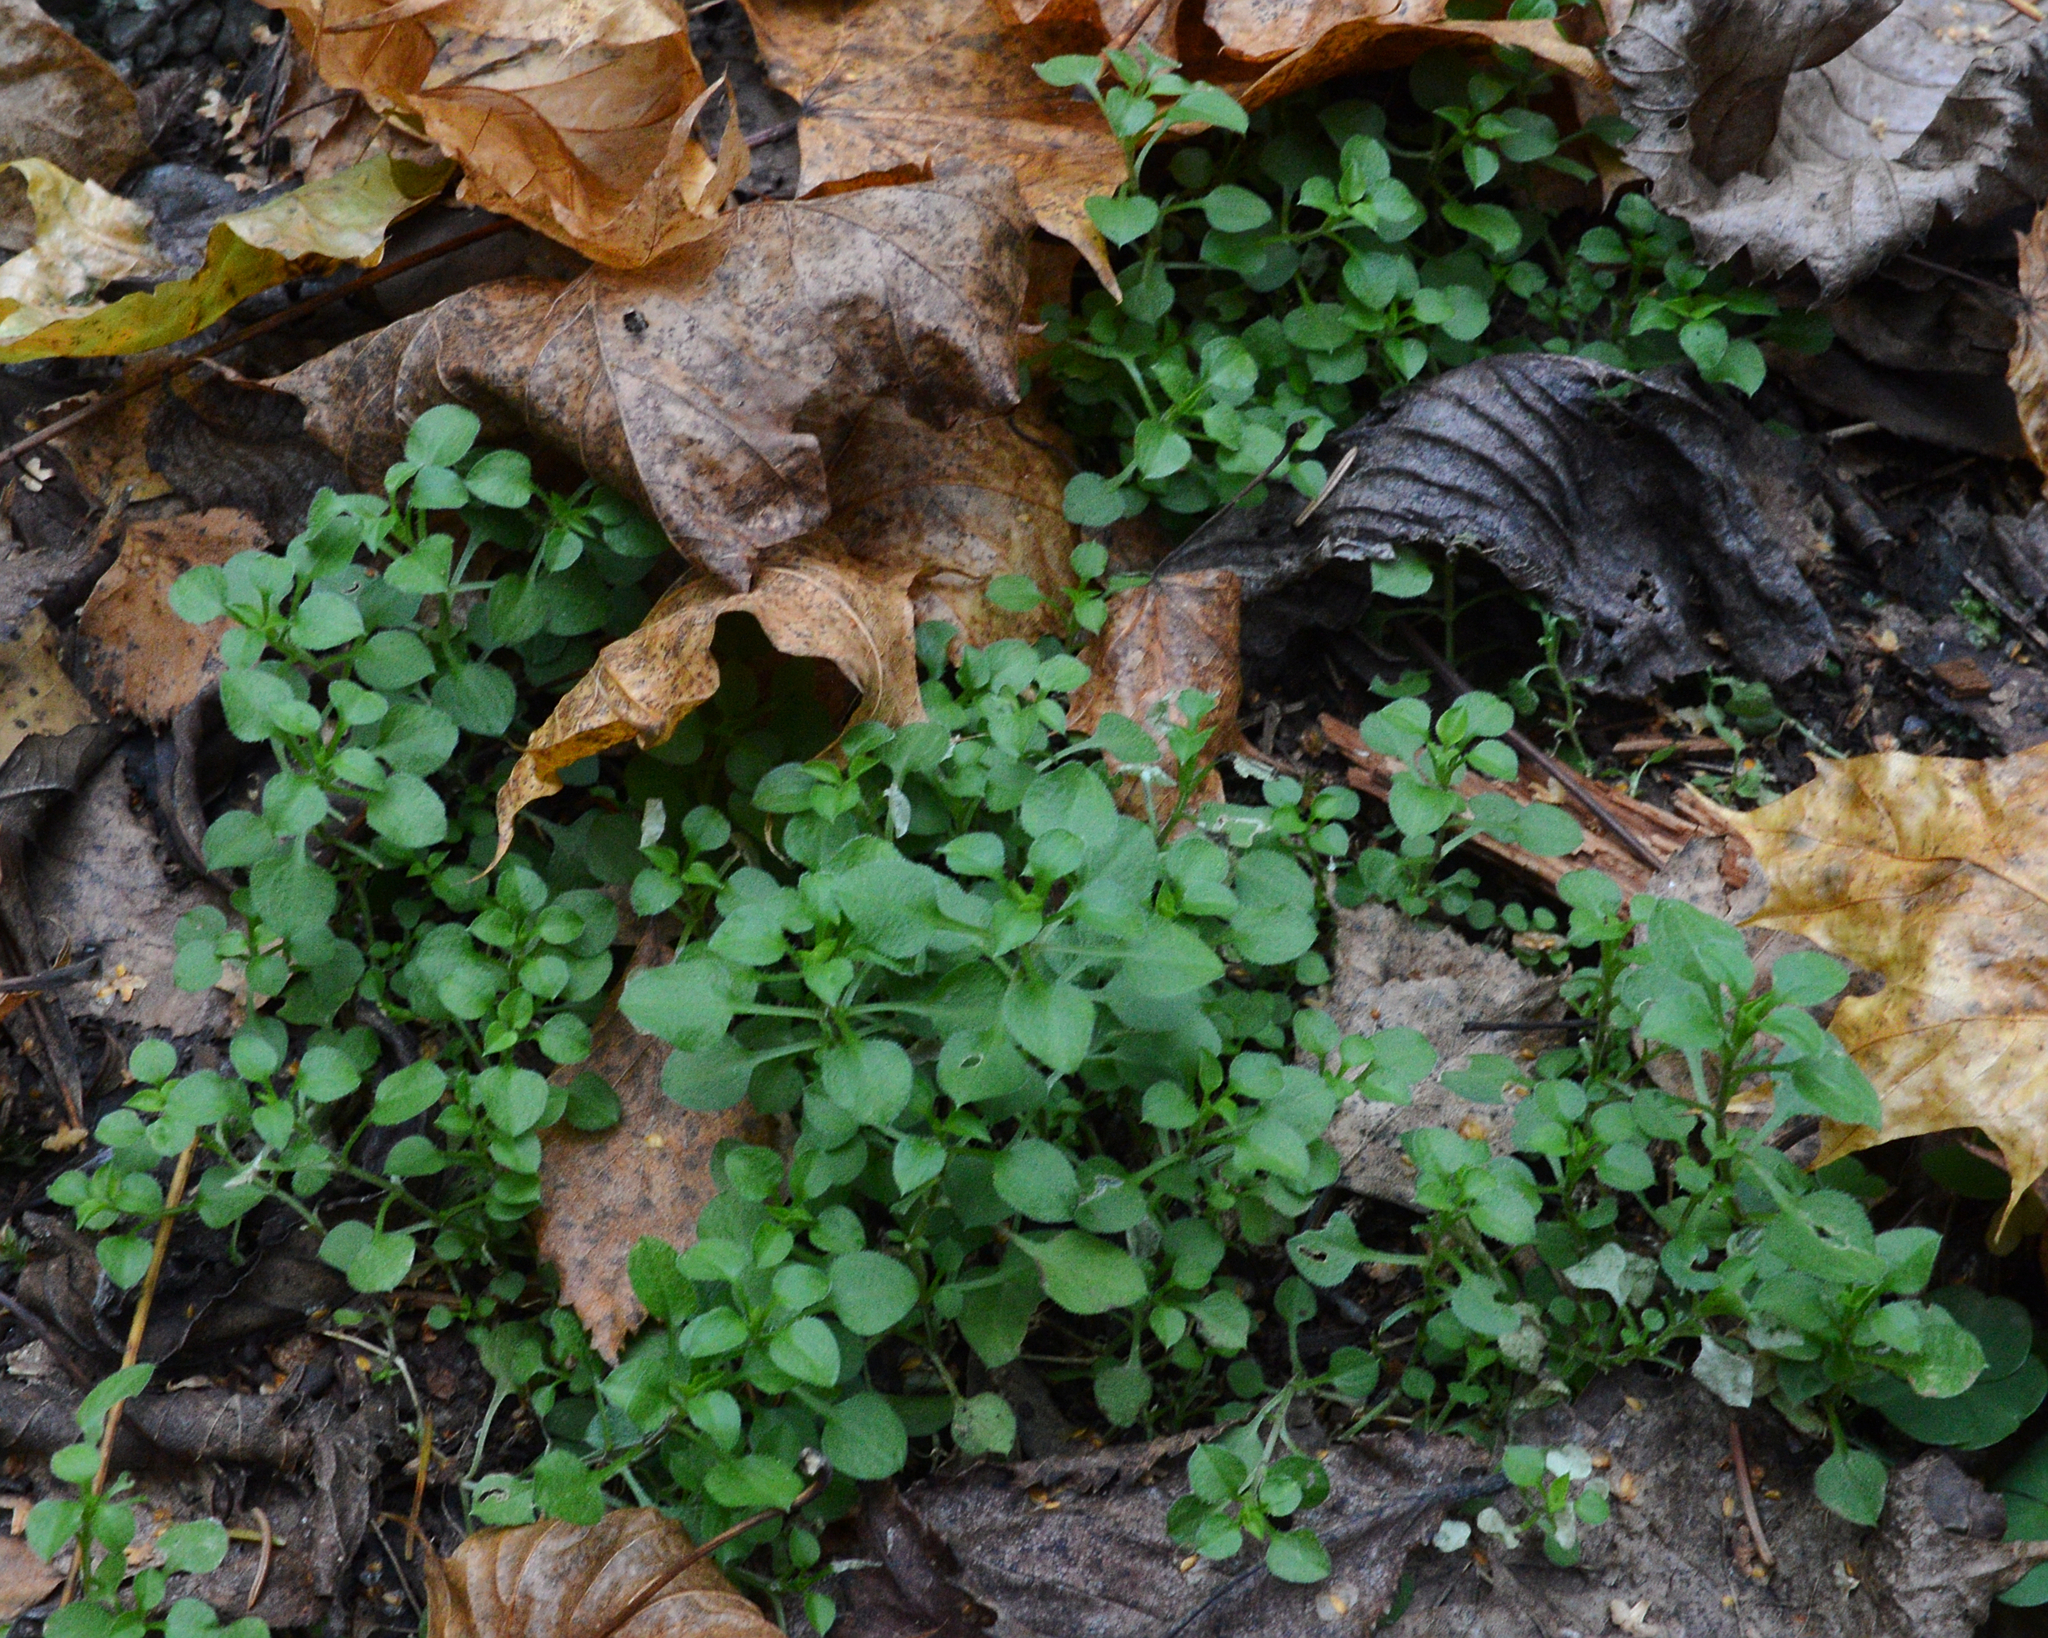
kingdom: Plantae
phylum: Tracheophyta
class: Magnoliopsida
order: Caryophyllales
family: Caryophyllaceae
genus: Stellaria
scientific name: Stellaria media
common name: Common chickweed
